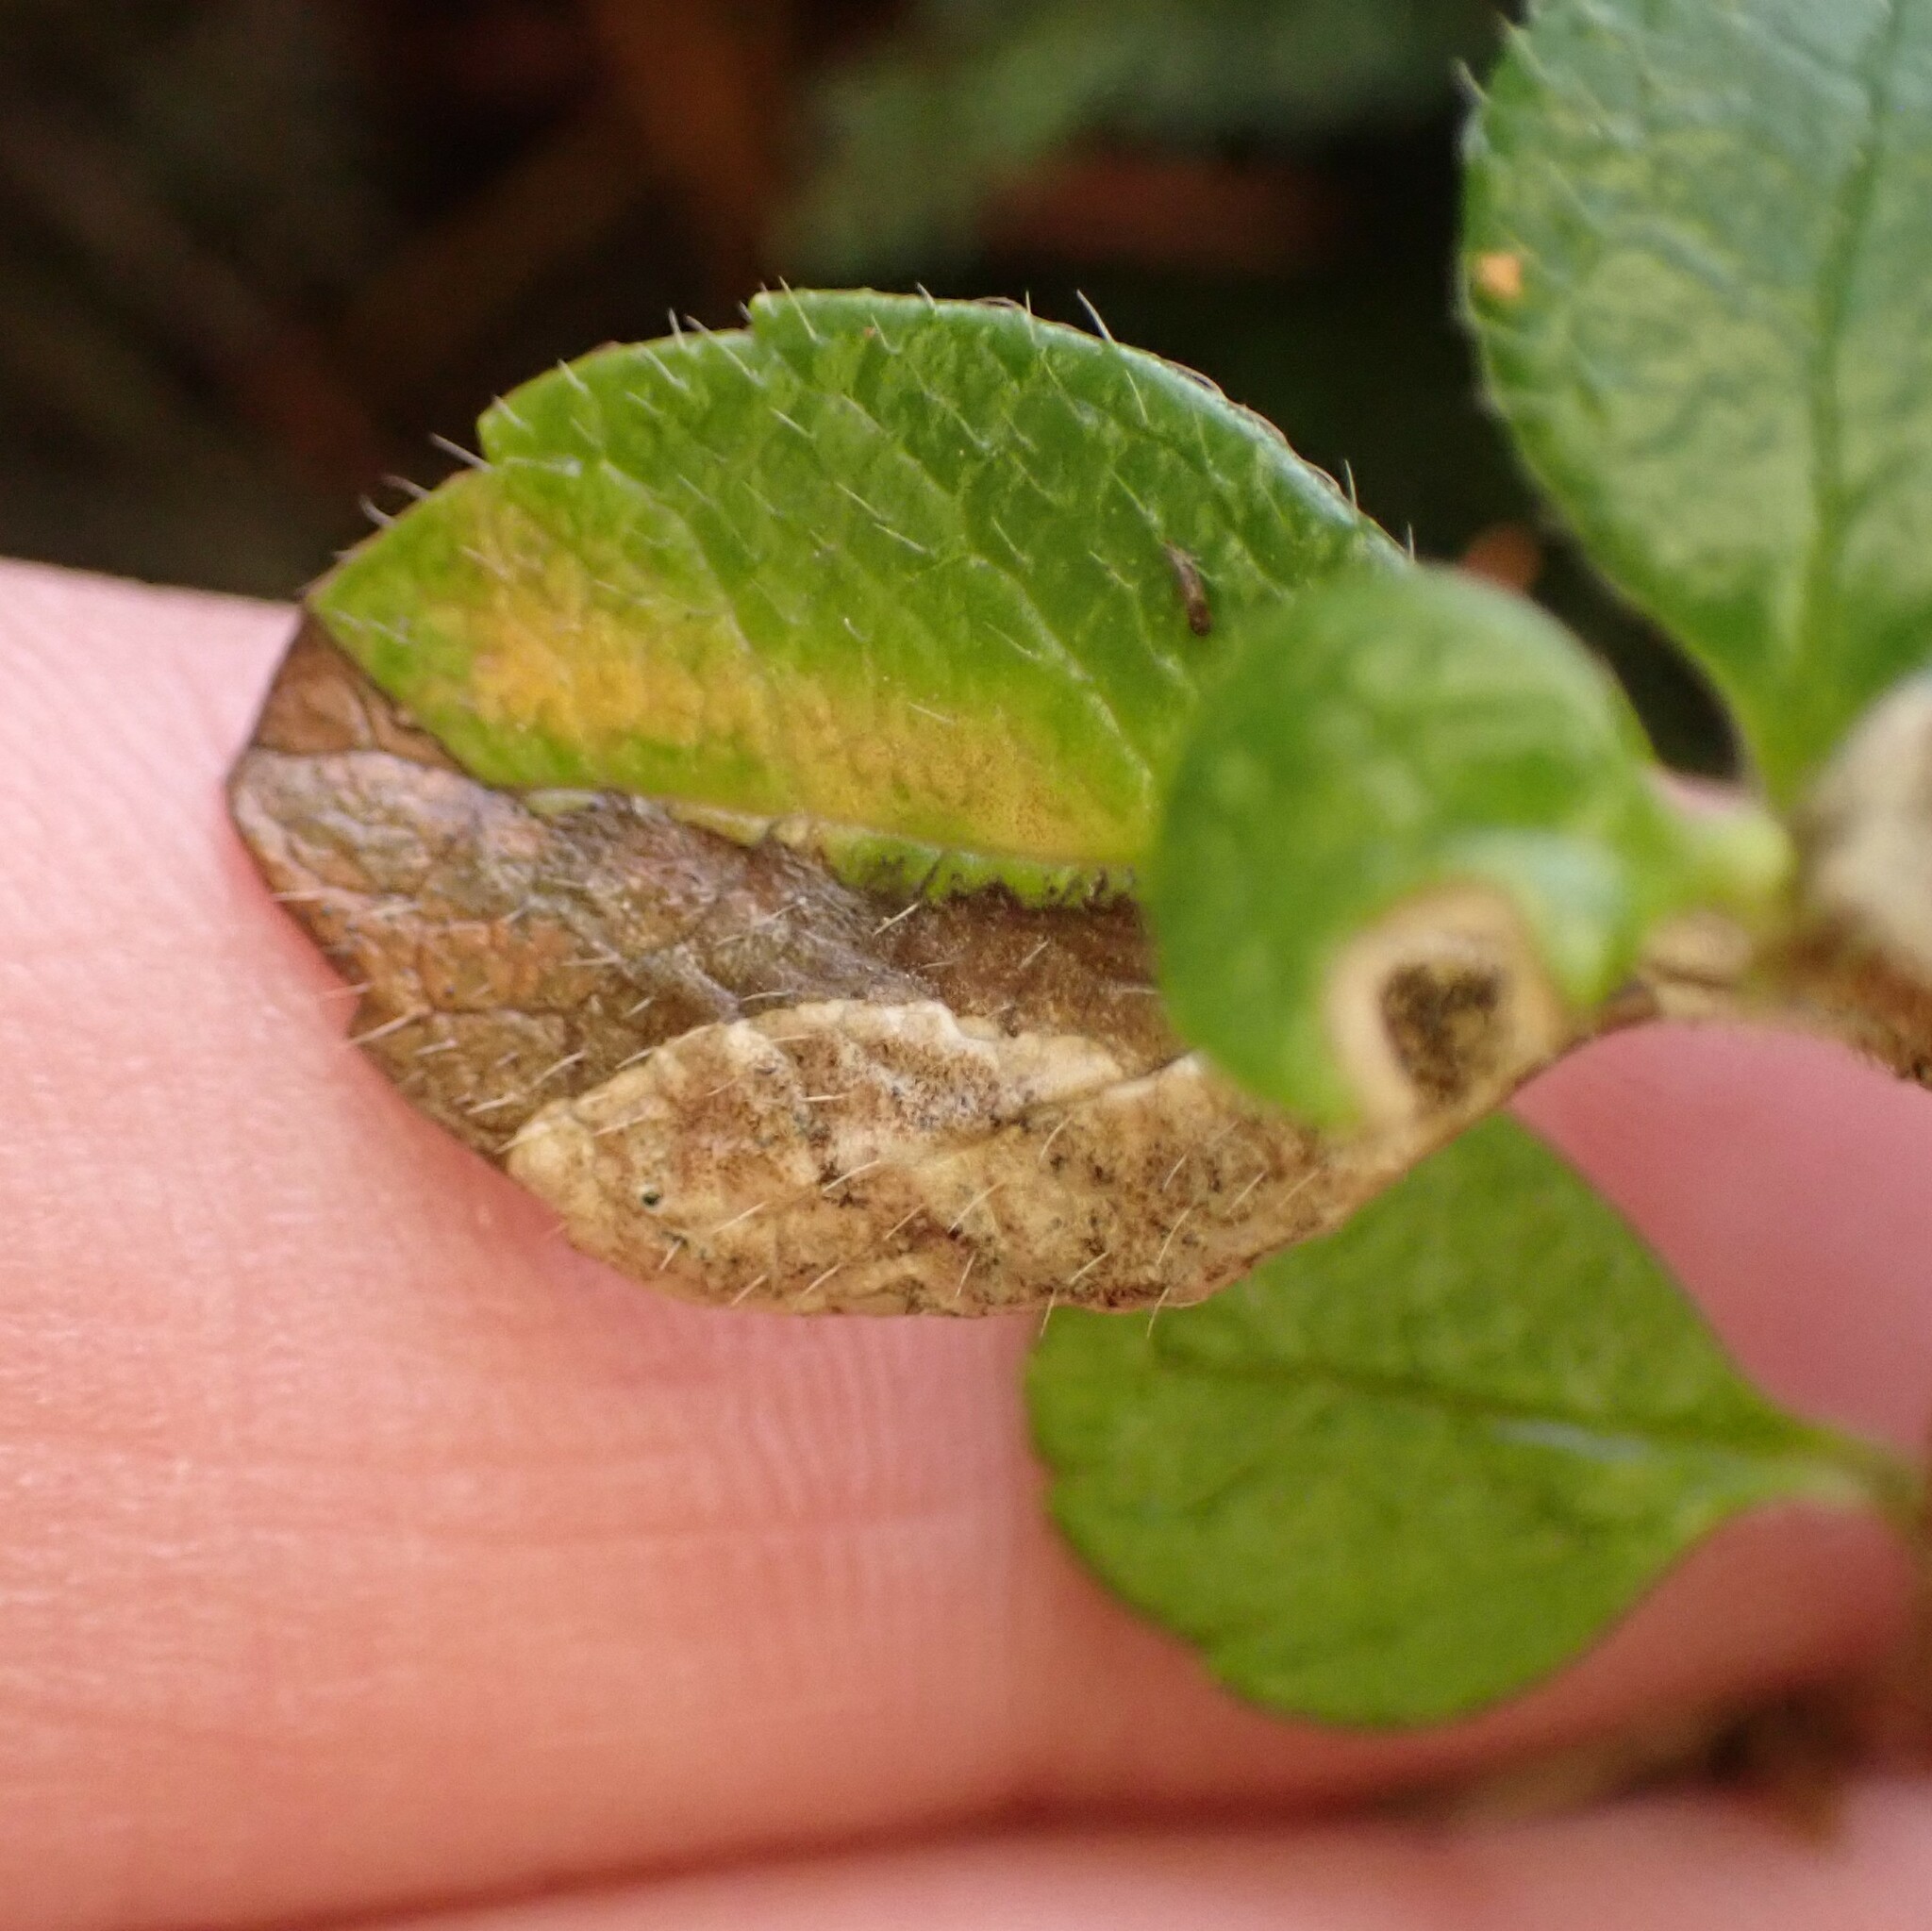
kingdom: Animalia
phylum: Arthropoda
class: Insecta
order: Diptera
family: Agromyzidae
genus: Phytomyza
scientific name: Phytomyza linnaeae
